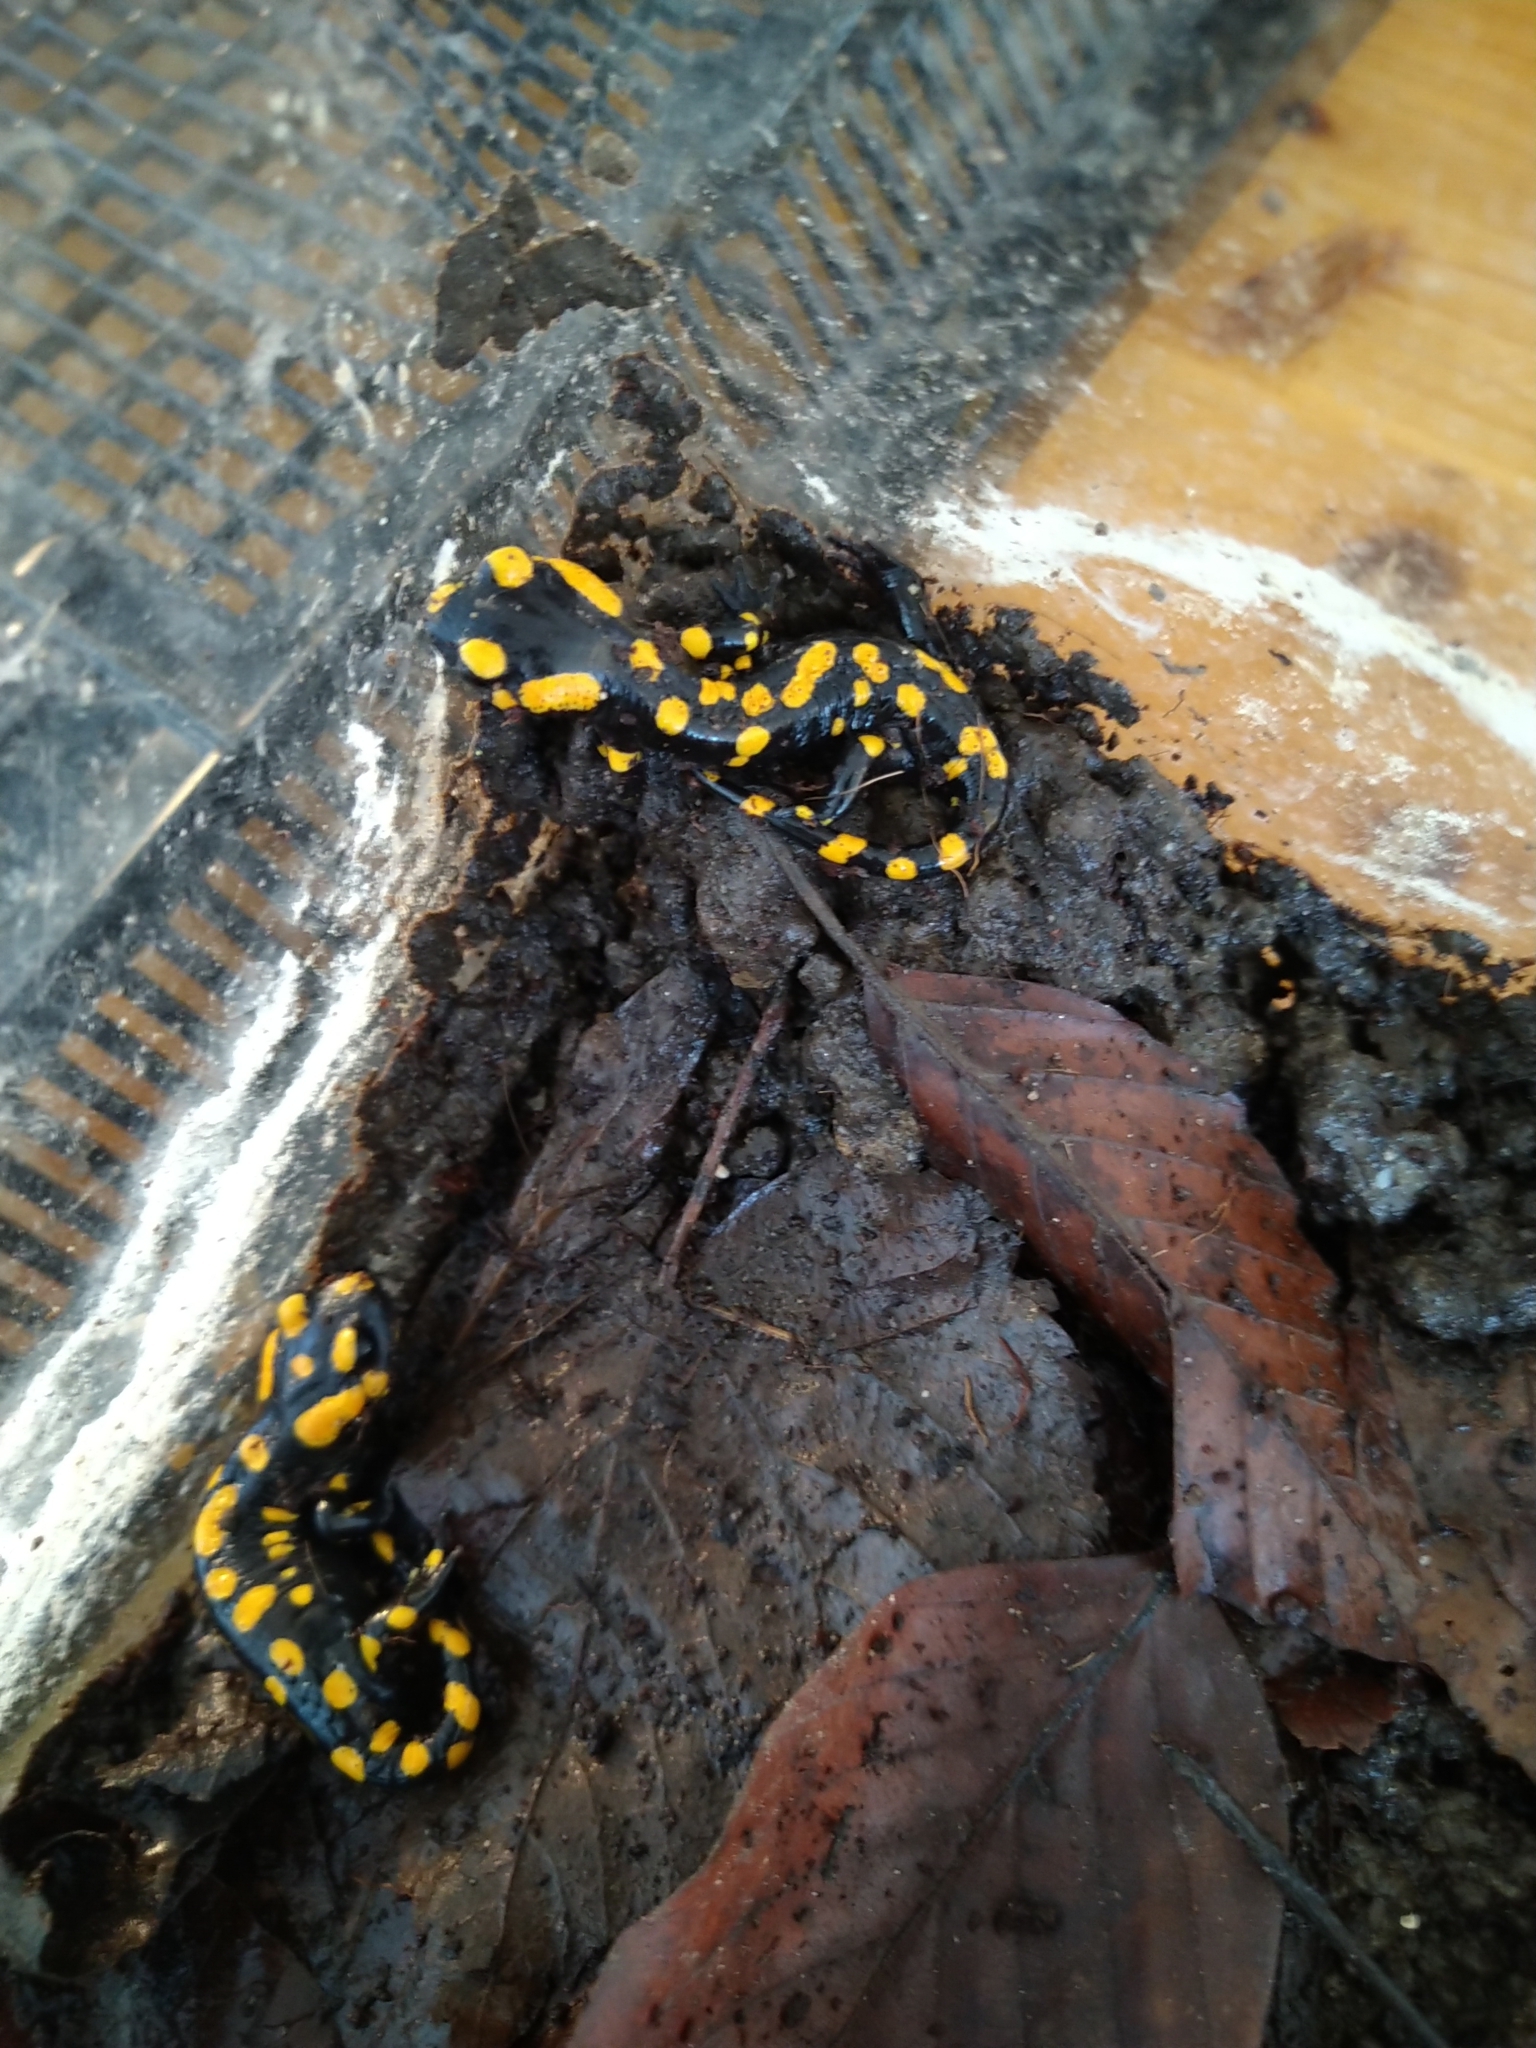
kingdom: Animalia
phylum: Chordata
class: Amphibia
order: Caudata
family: Salamandridae
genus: Salamandra
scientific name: Salamandra salamandra
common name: Fire salamander
